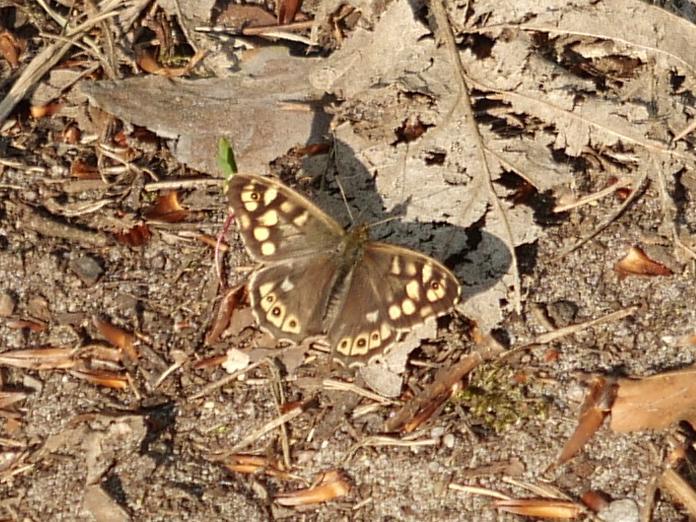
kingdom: Animalia
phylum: Arthropoda
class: Insecta
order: Lepidoptera
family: Nymphalidae
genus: Pararge
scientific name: Pararge aegeria
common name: Speckled wood
